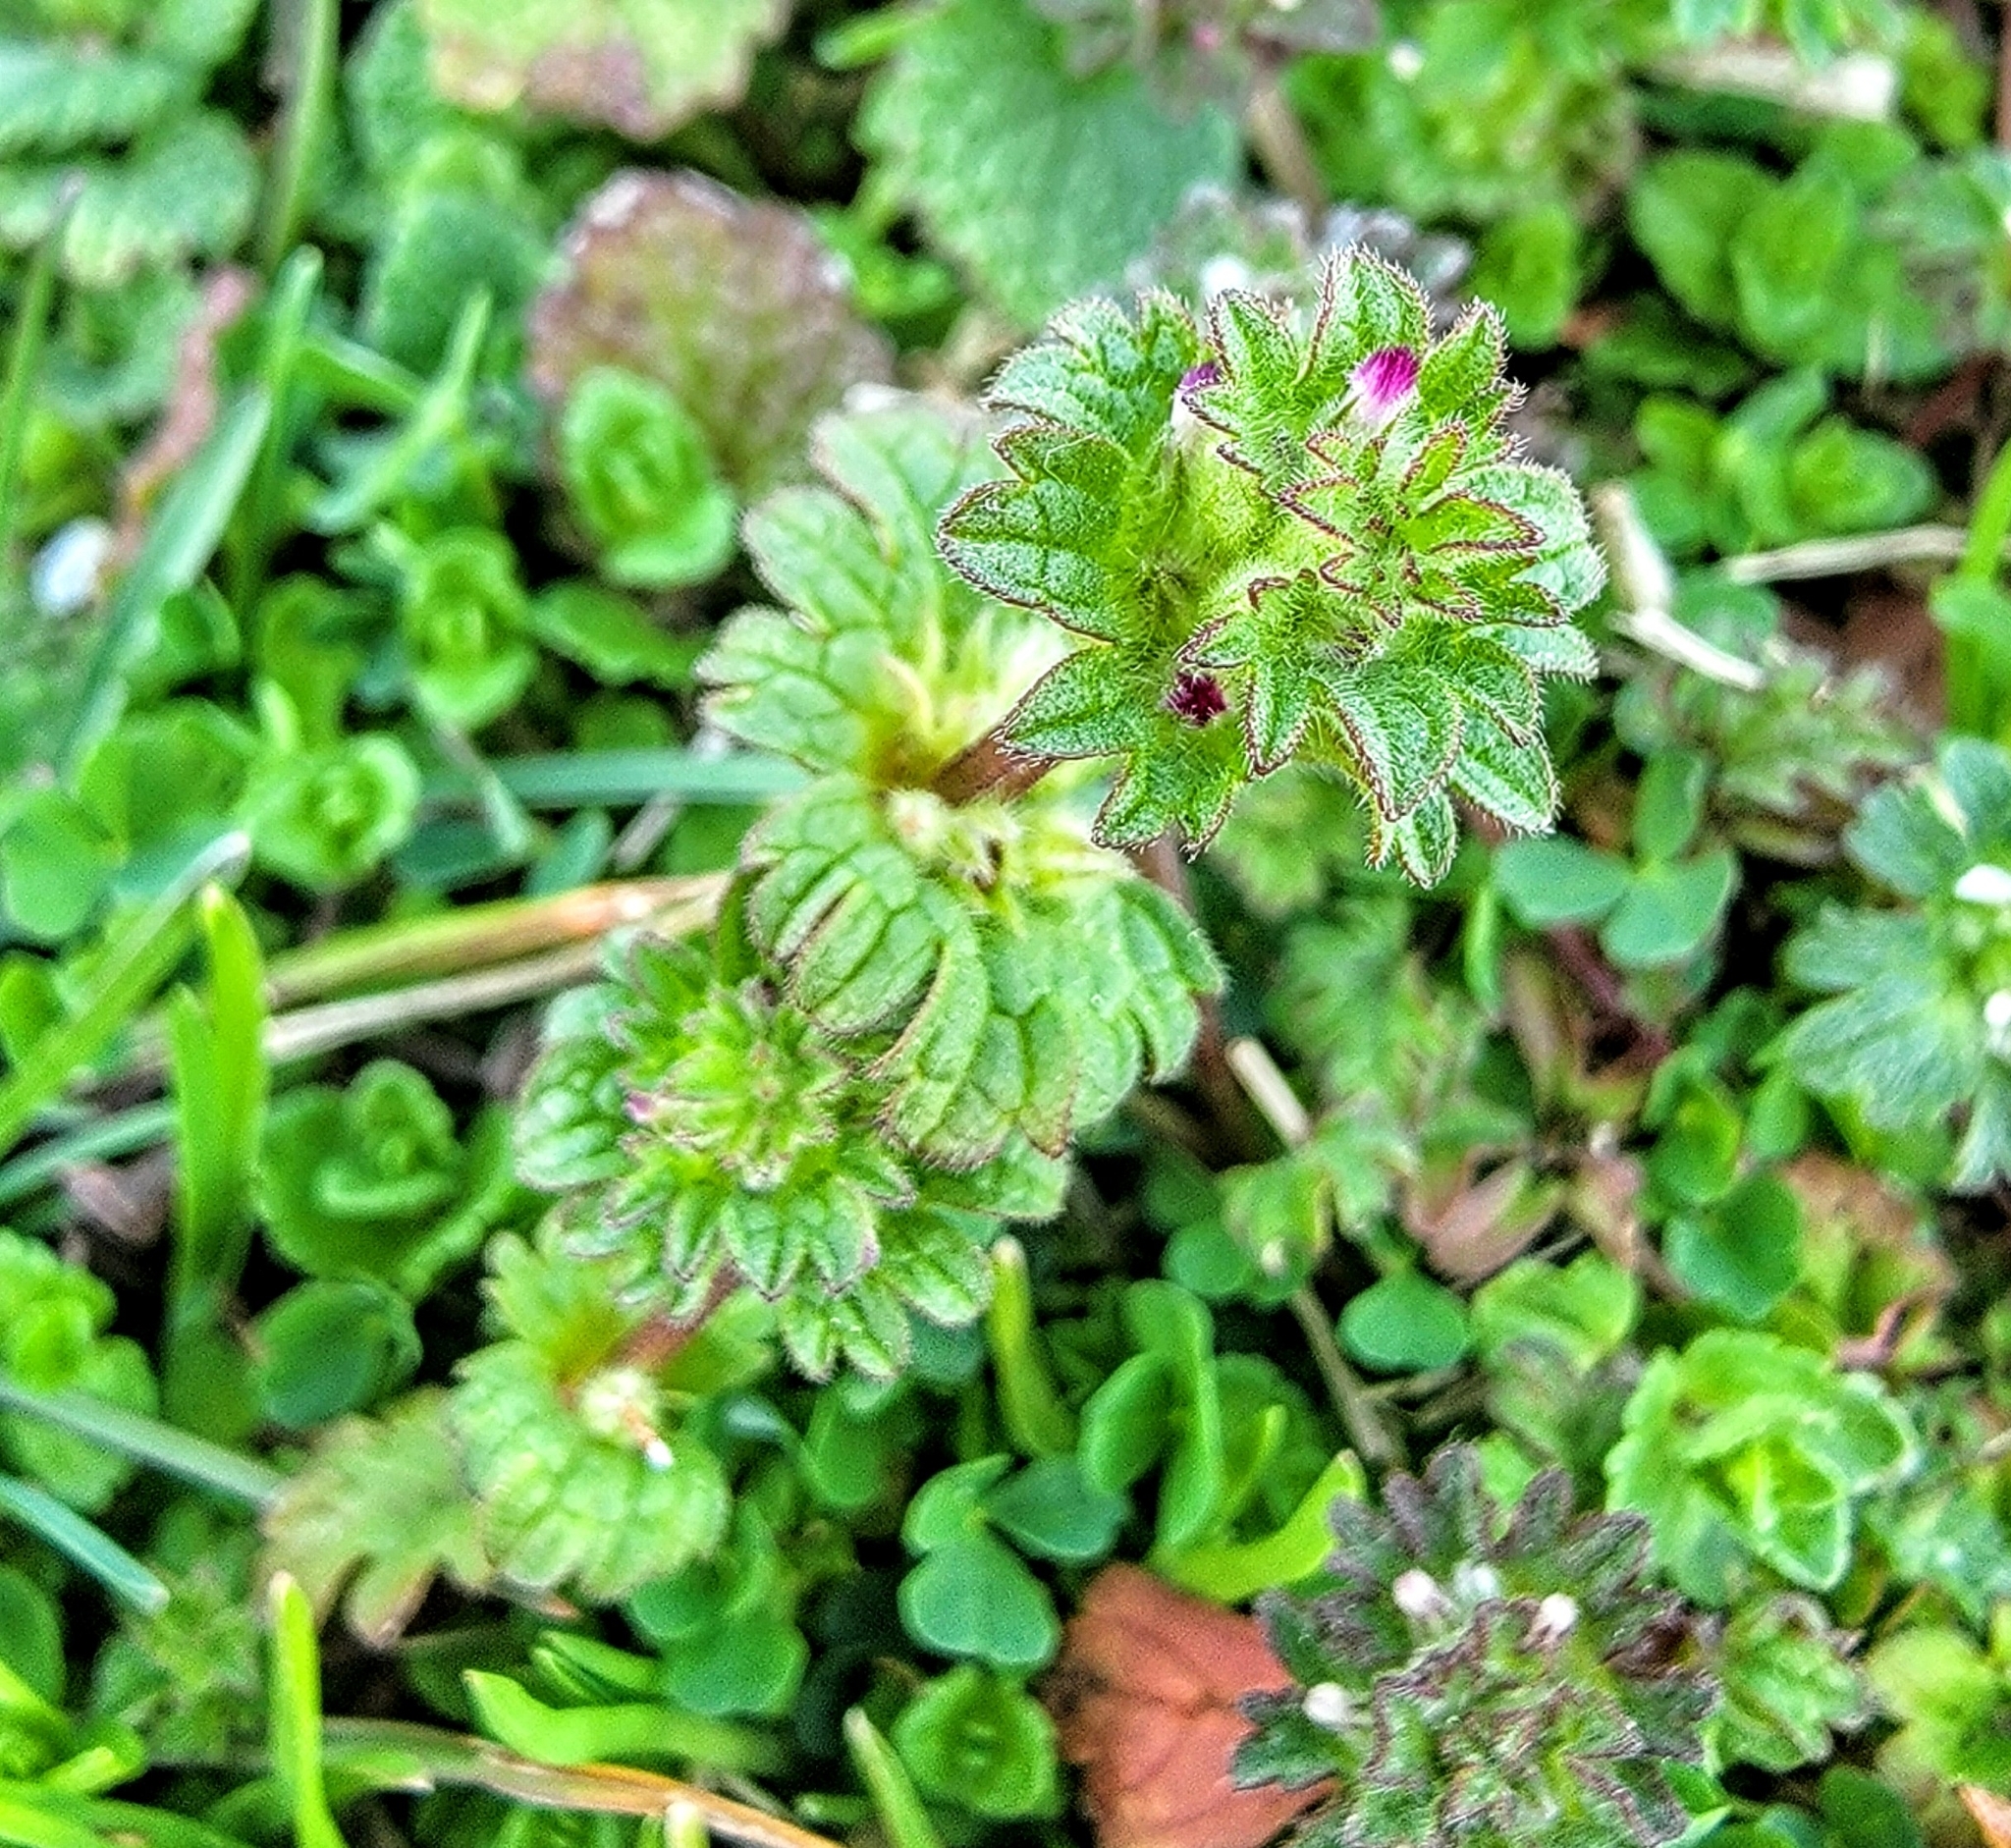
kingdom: Plantae
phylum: Tracheophyta
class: Magnoliopsida
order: Lamiales
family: Lamiaceae
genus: Lamium
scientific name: Lamium amplexicaule
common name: Henbit dead-nettle
